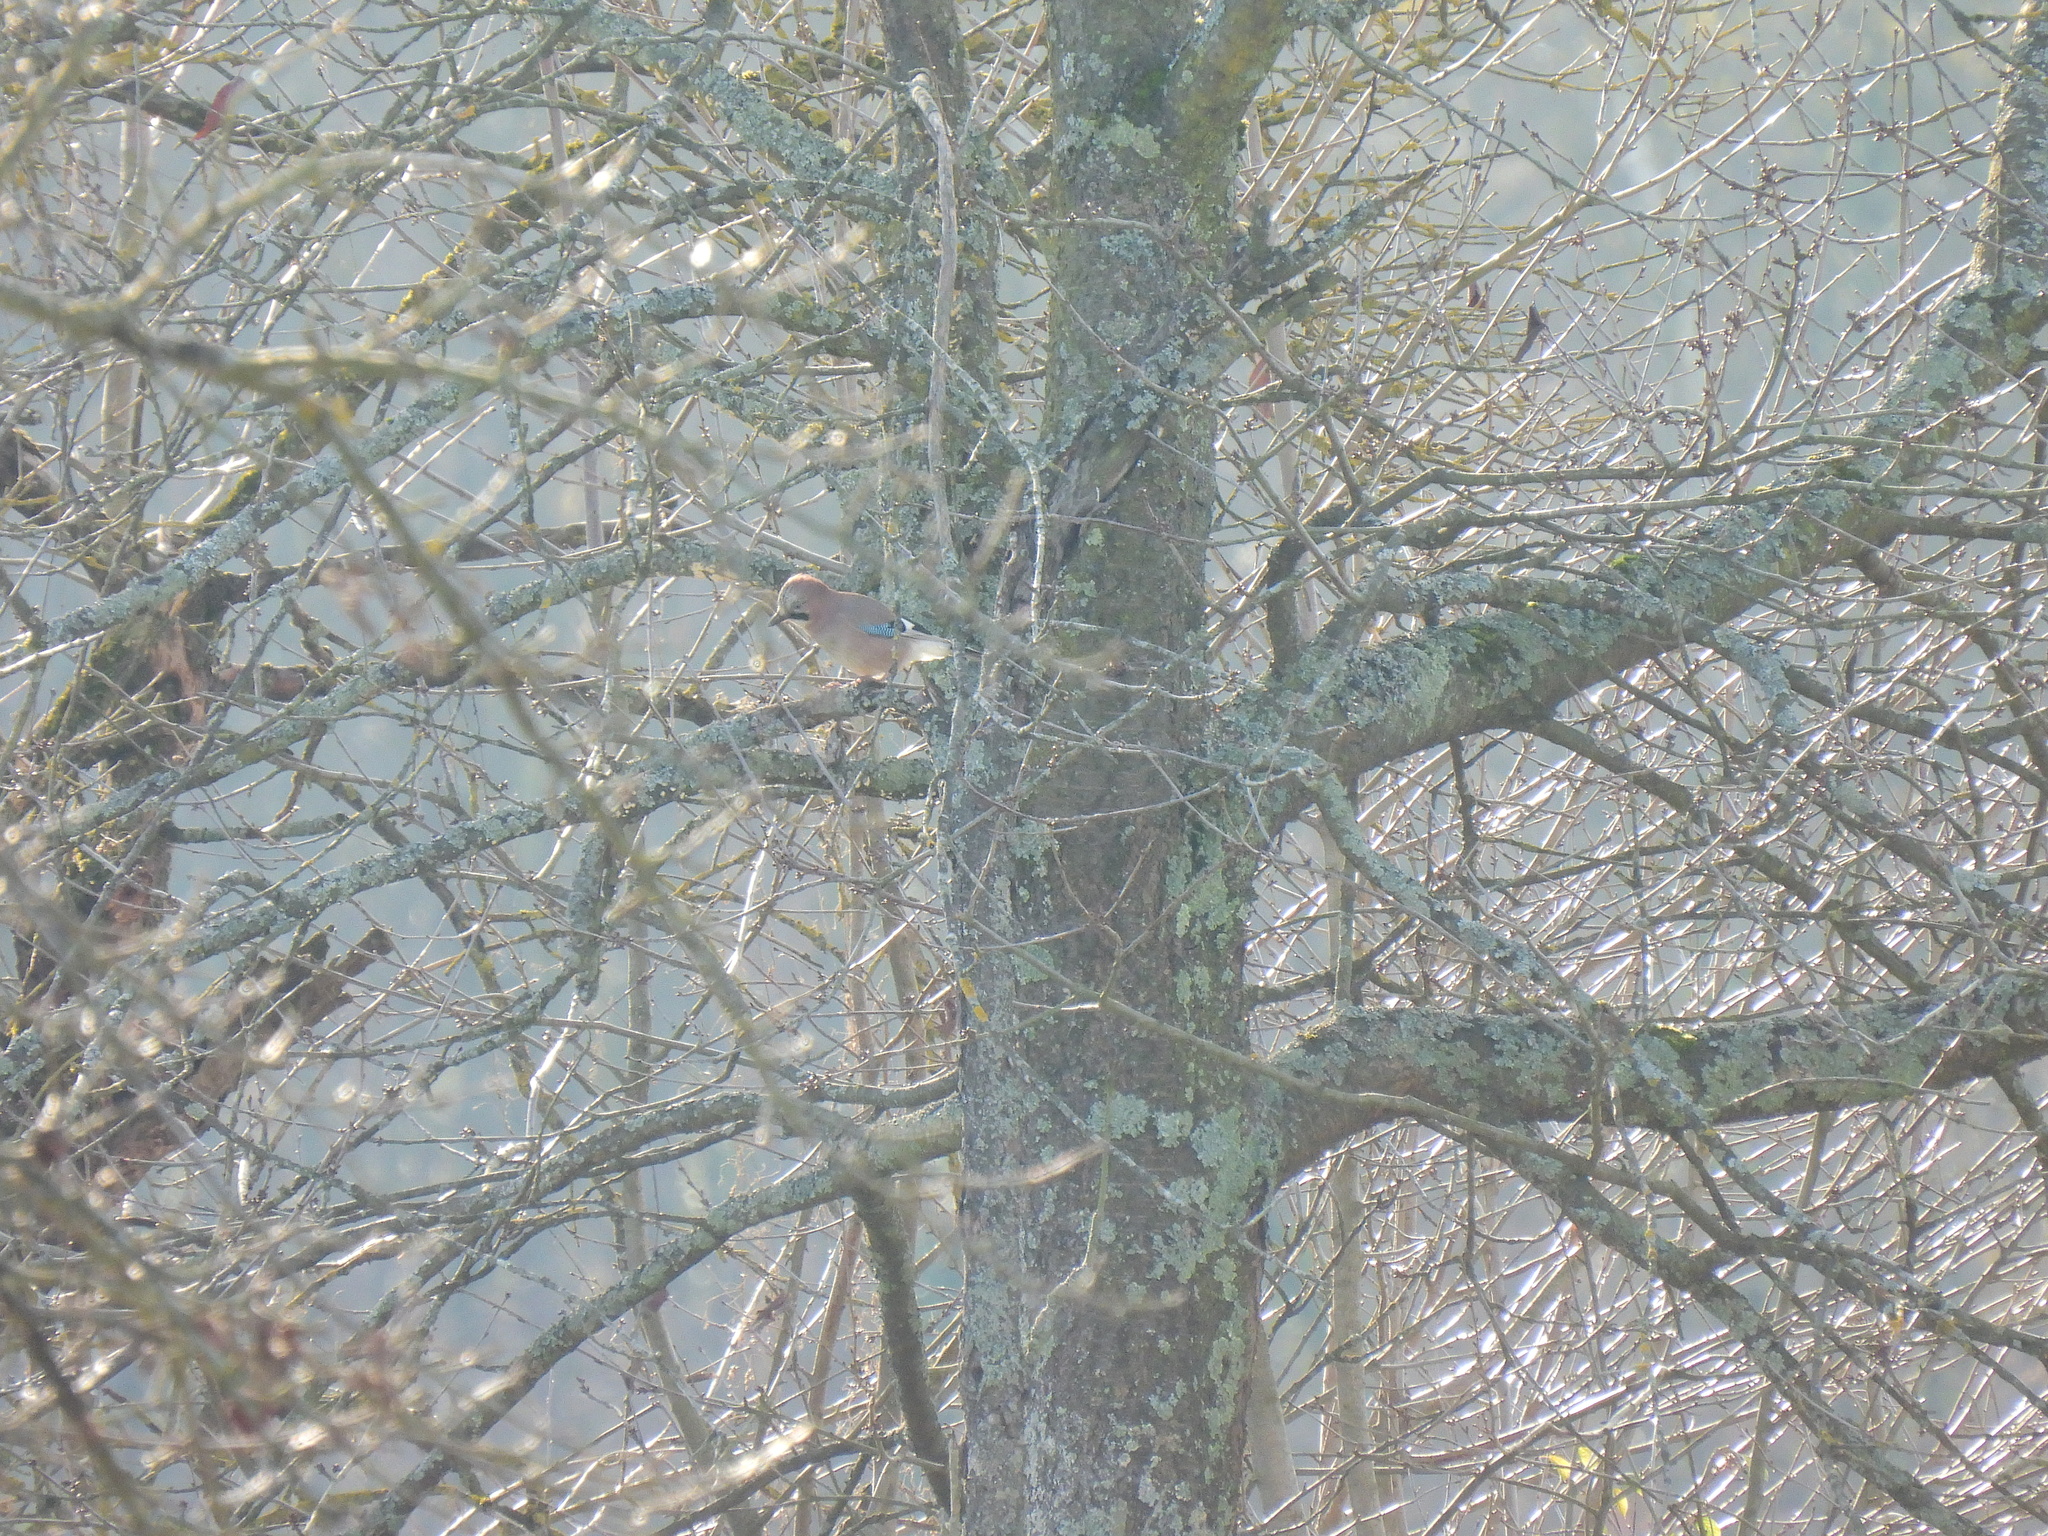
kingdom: Animalia
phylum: Chordata
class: Aves
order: Passeriformes
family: Corvidae
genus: Garrulus
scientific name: Garrulus glandarius
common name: Eurasian jay
